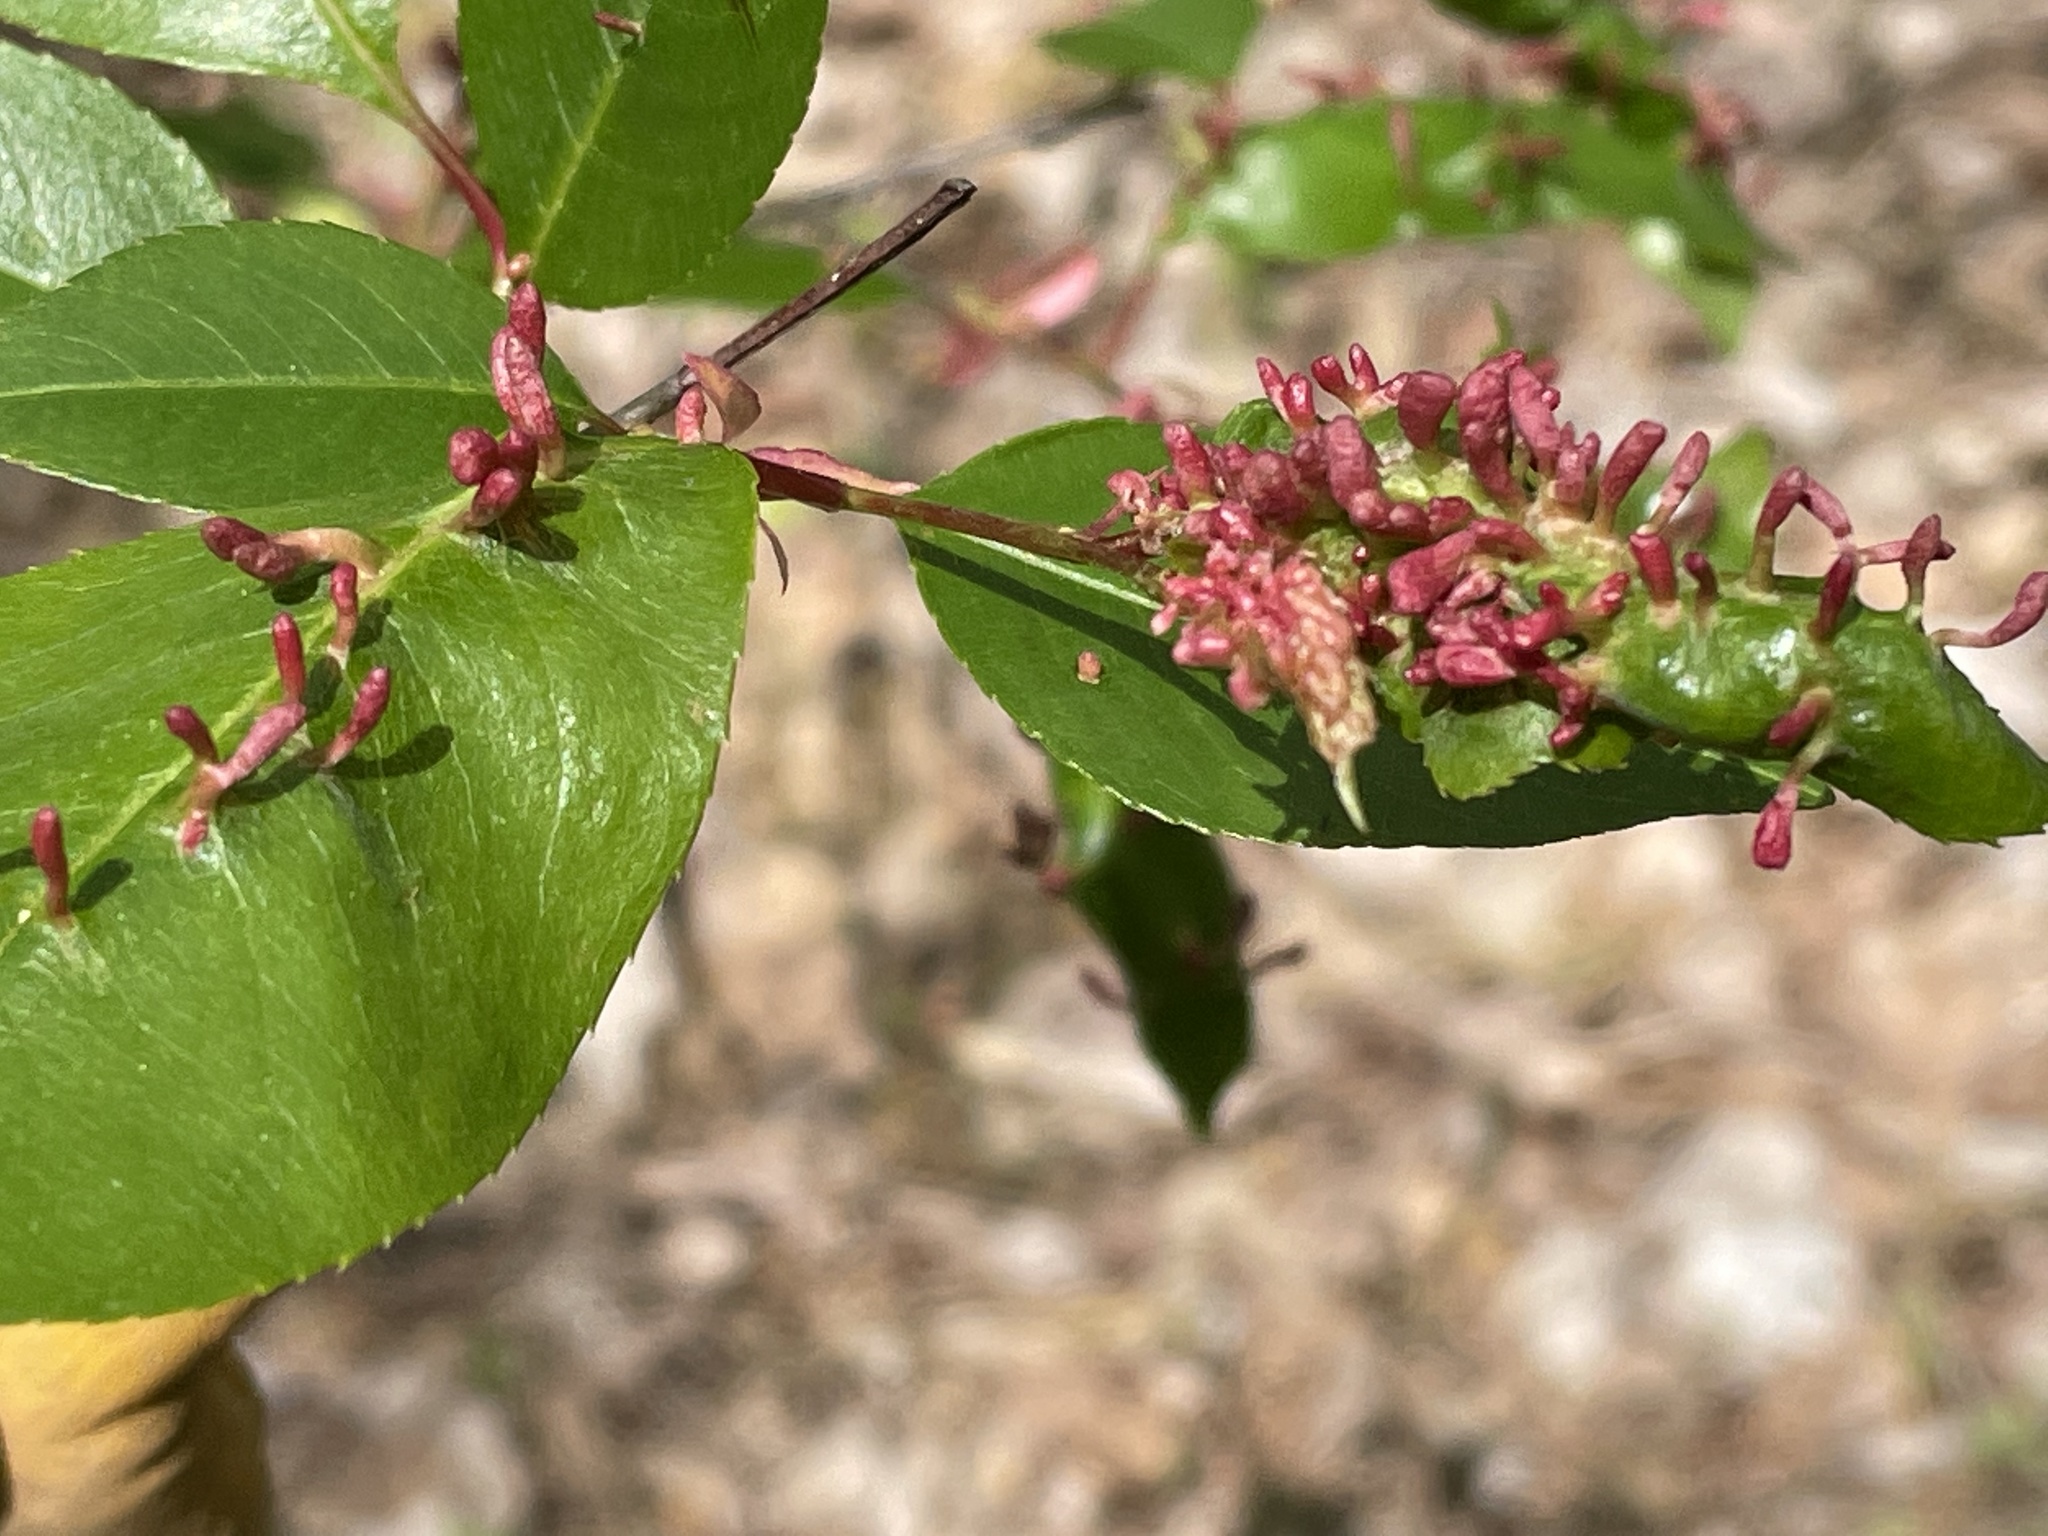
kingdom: Animalia
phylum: Arthropoda
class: Arachnida
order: Trombidiformes
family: Eriophyidae
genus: Eriophyes
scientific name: Eriophyes
